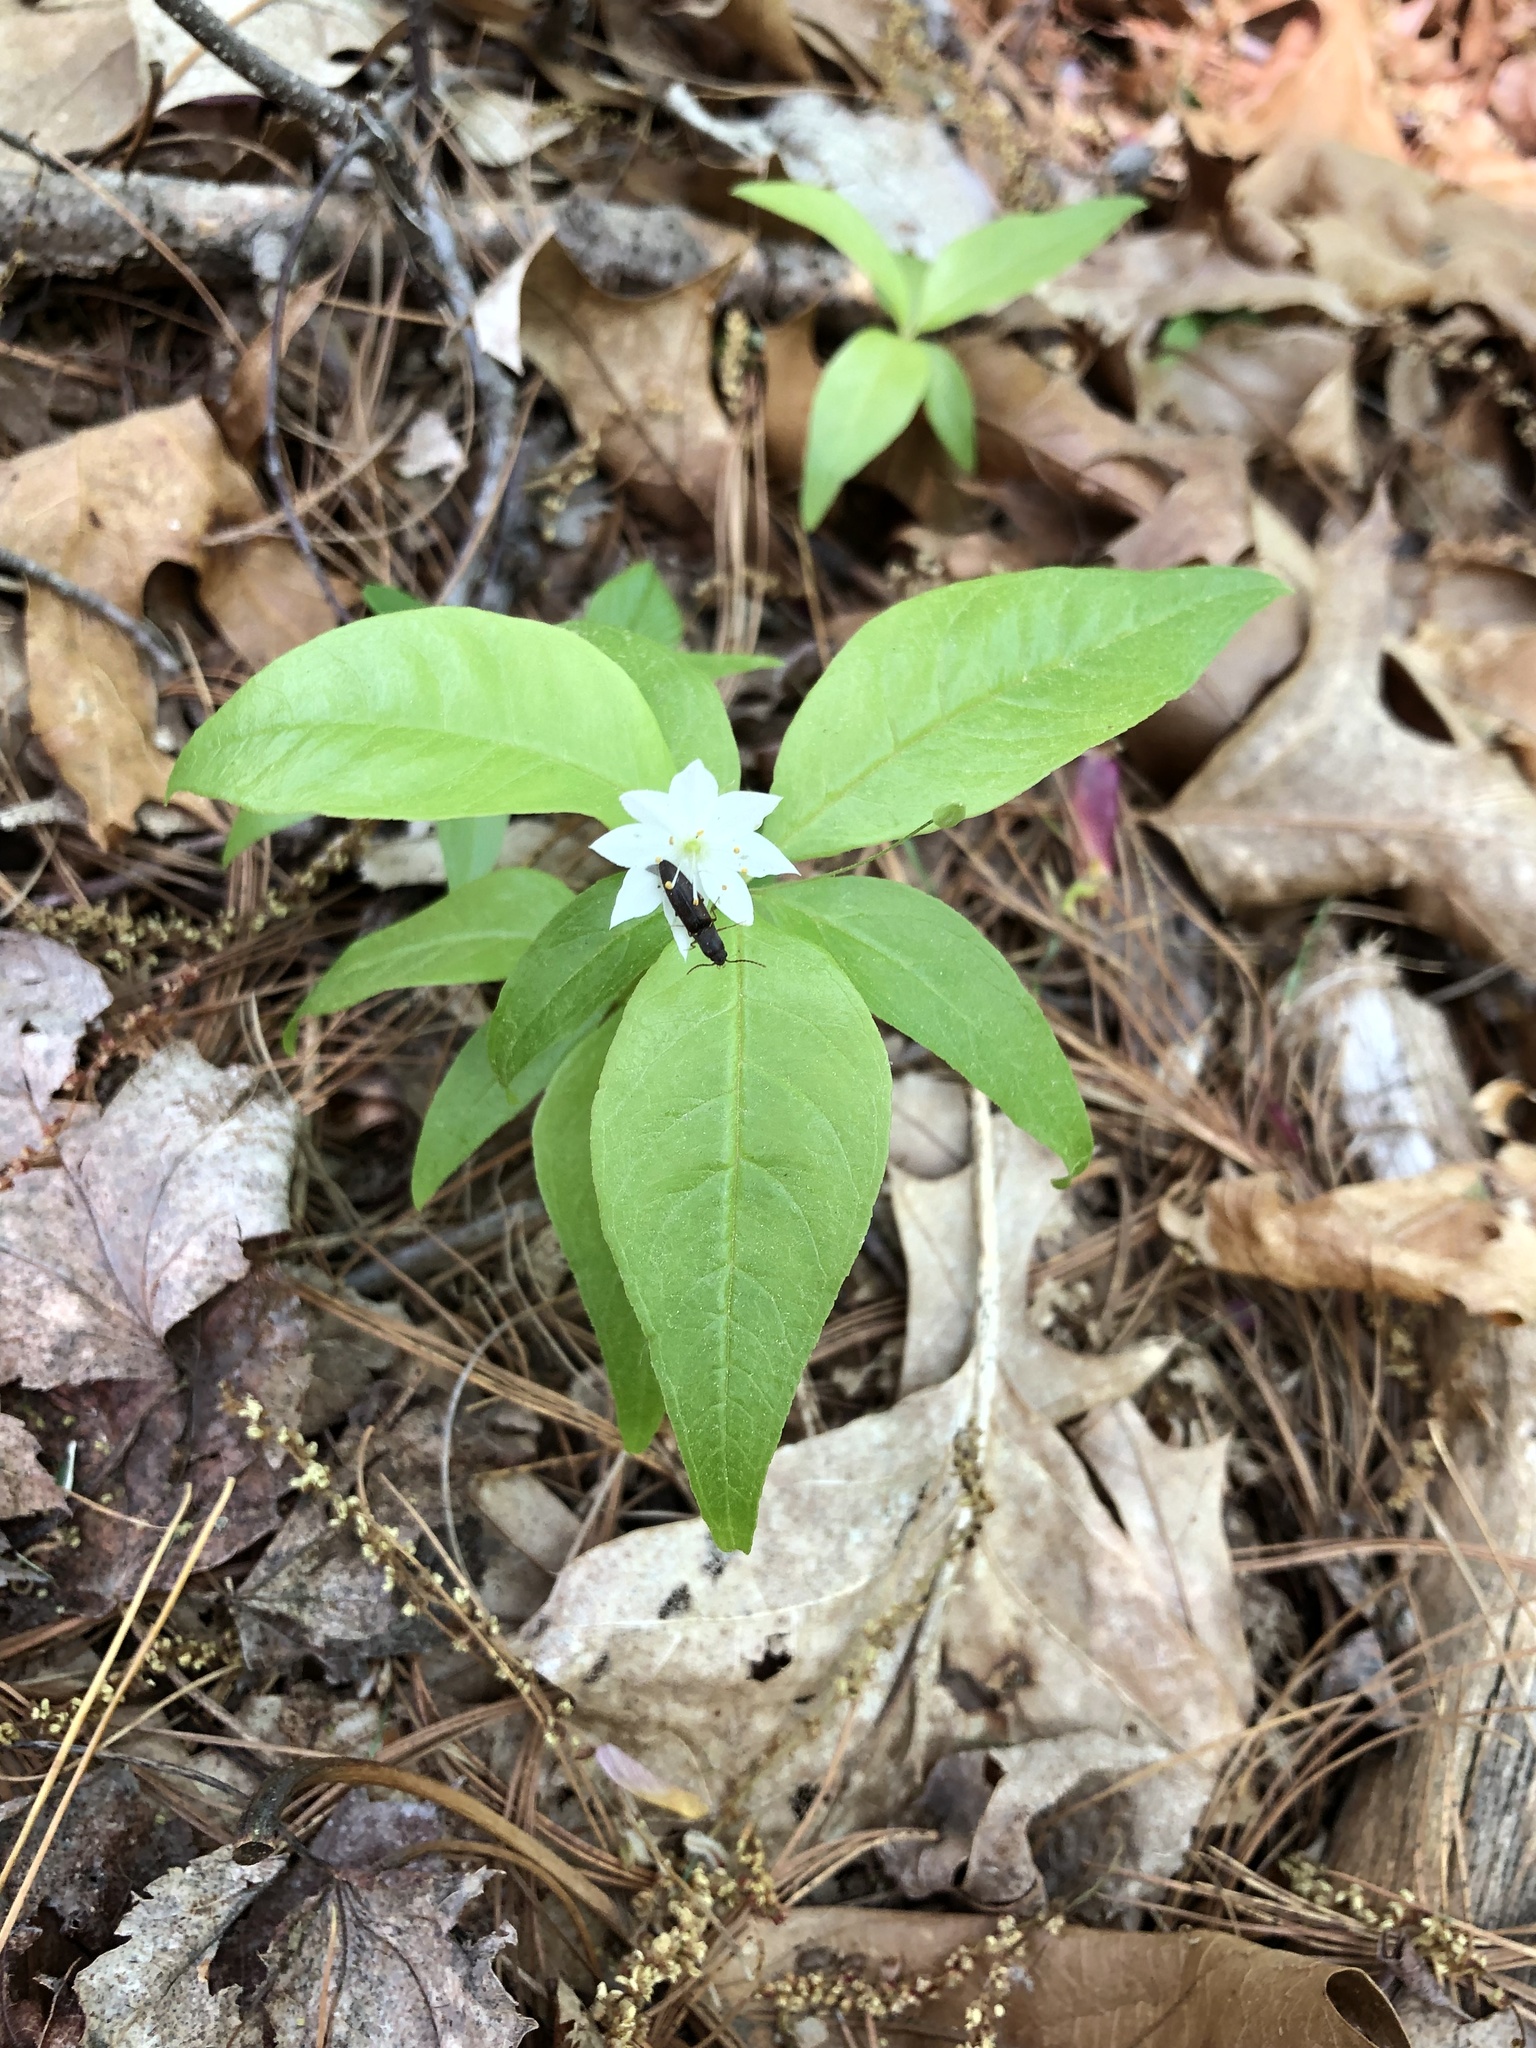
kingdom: Plantae
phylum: Tracheophyta
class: Magnoliopsida
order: Ericales
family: Primulaceae
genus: Lysimachia
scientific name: Lysimachia borealis
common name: American starflower
